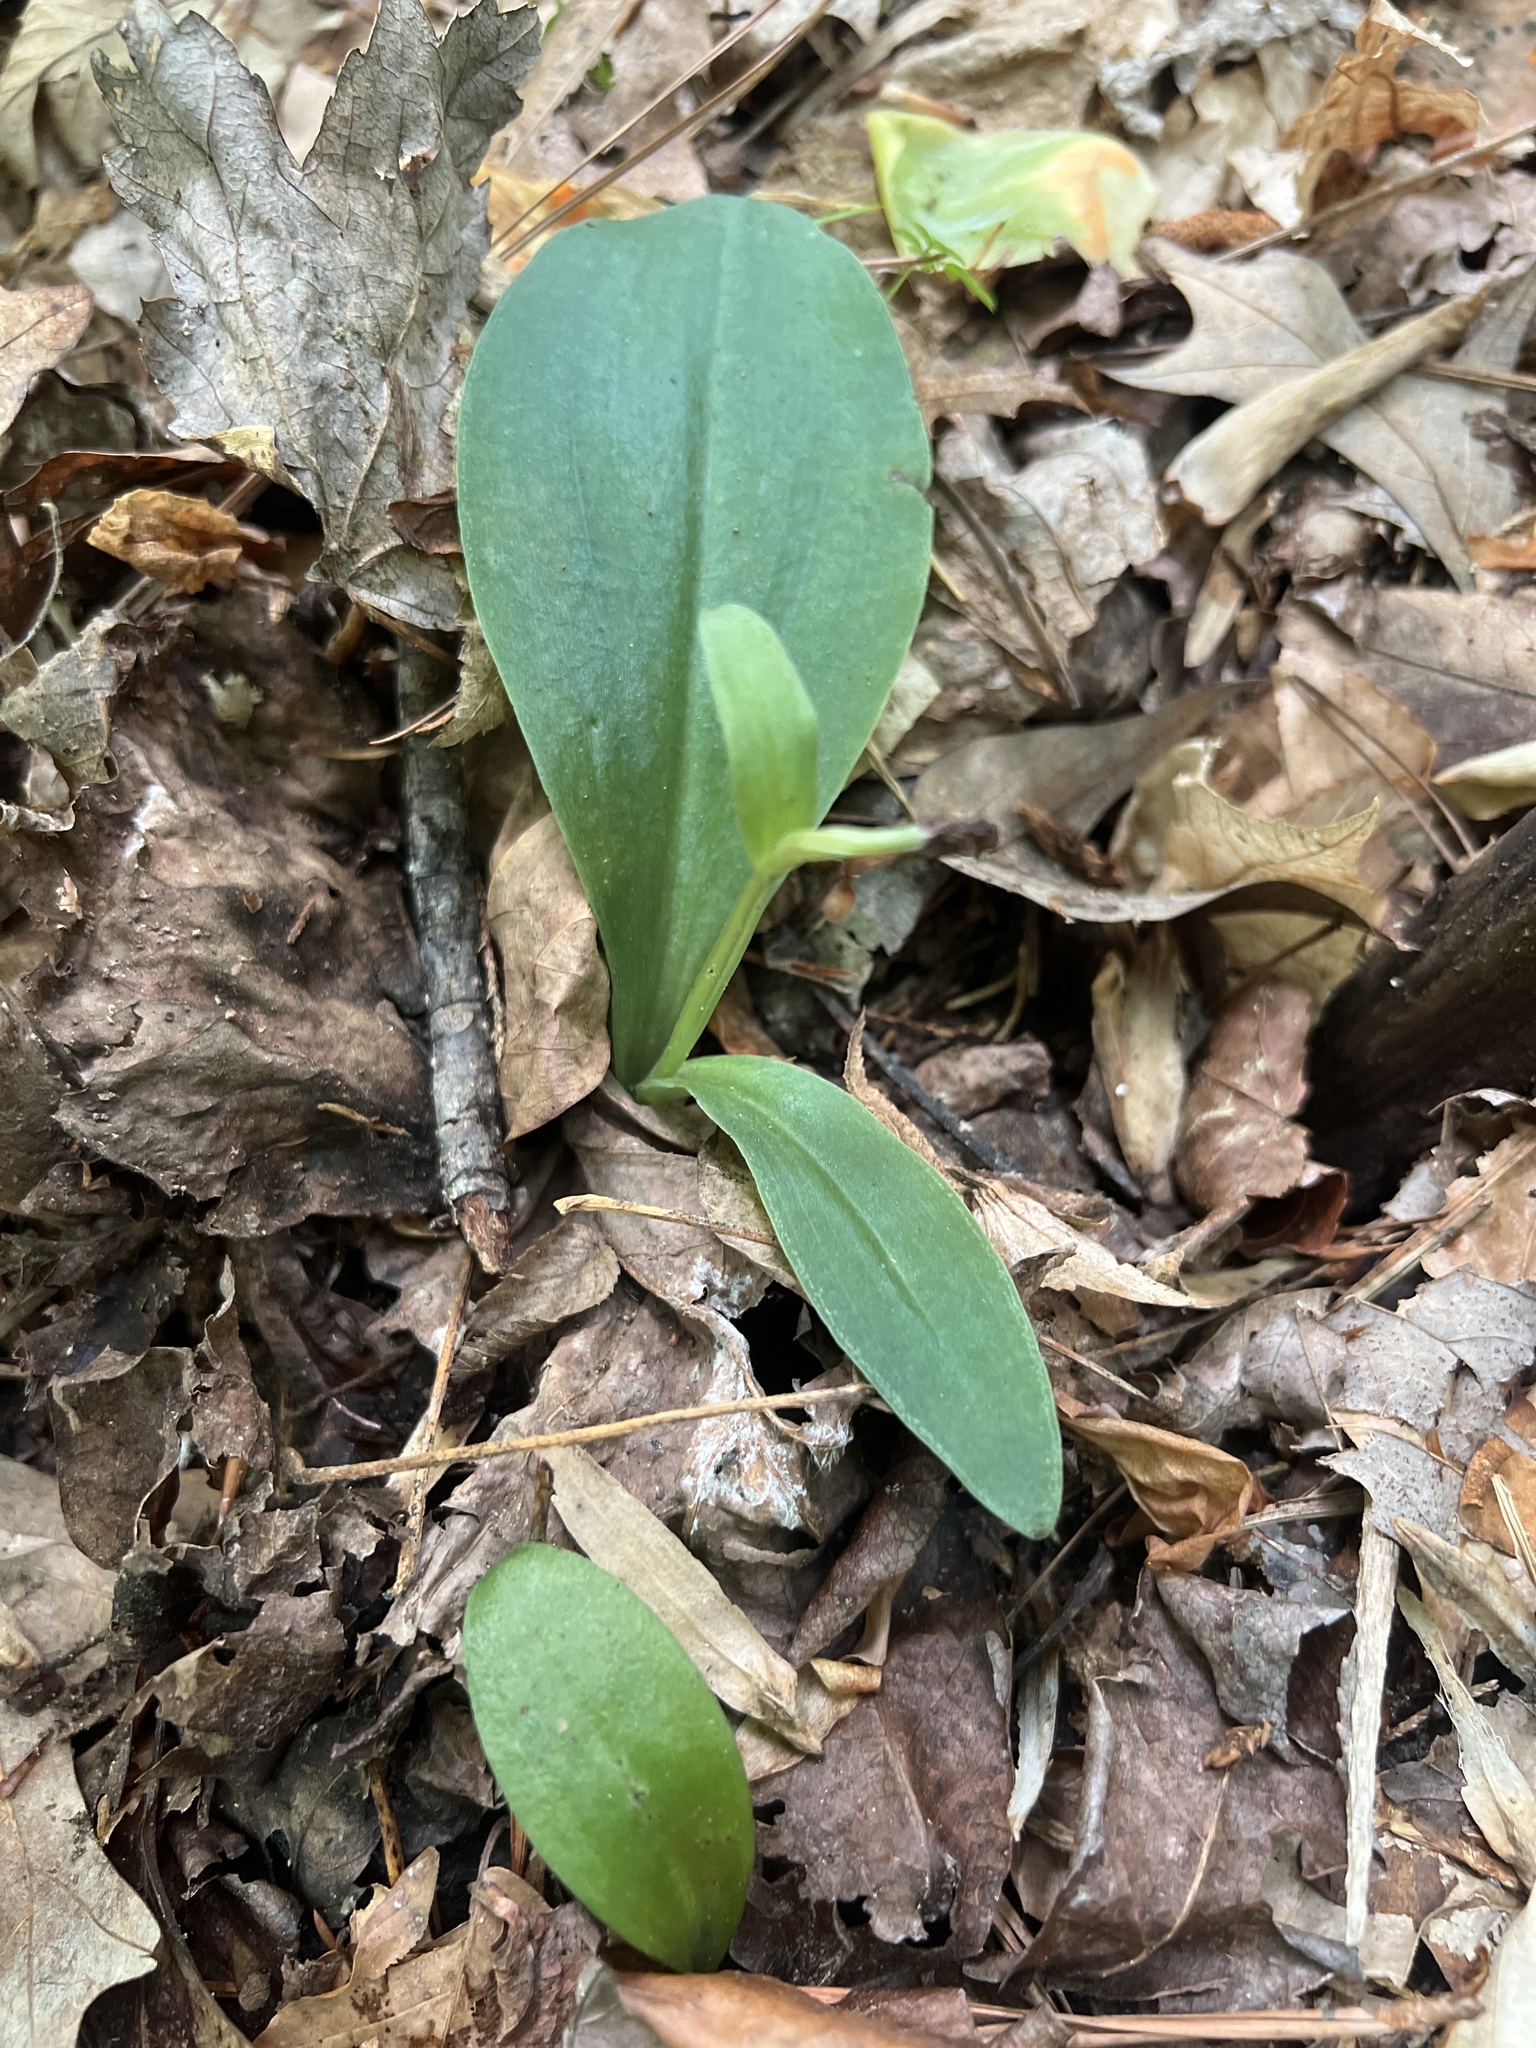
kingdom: Plantae
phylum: Tracheophyta
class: Liliopsida
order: Asparagales
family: Orchidaceae
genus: Galearis
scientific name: Galearis spectabilis
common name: Purple-hooded orchis
